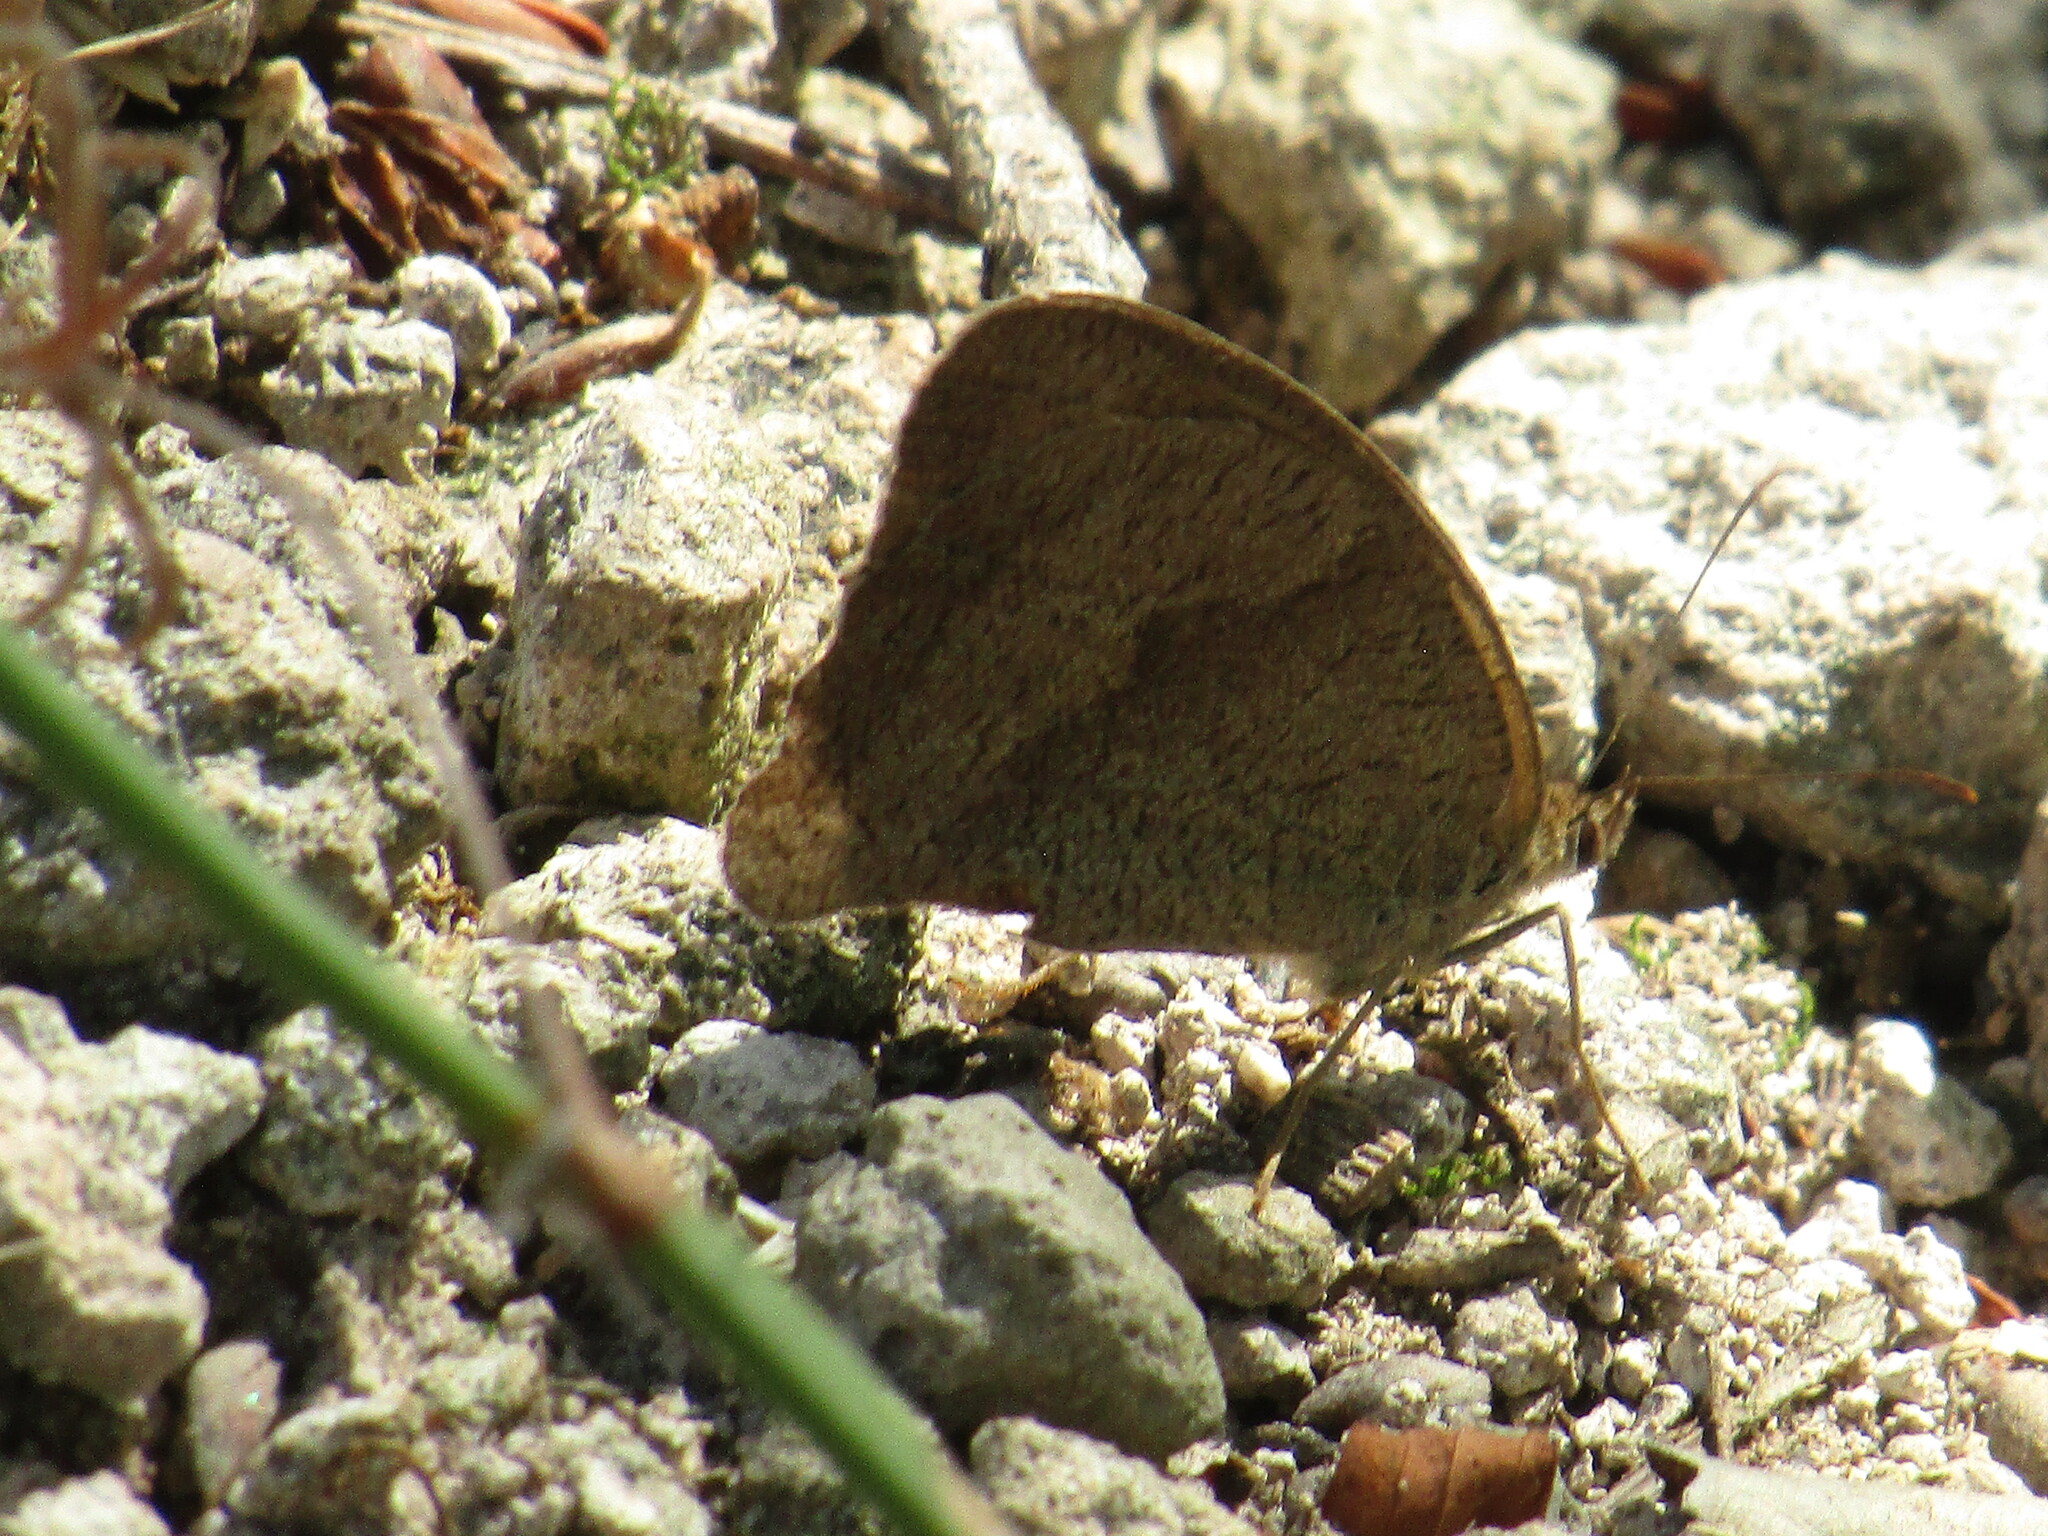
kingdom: Animalia
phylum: Arthropoda
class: Insecta
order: Lepidoptera
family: Nymphalidae
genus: Maniola
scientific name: Maniola jurtina
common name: Meadow brown
